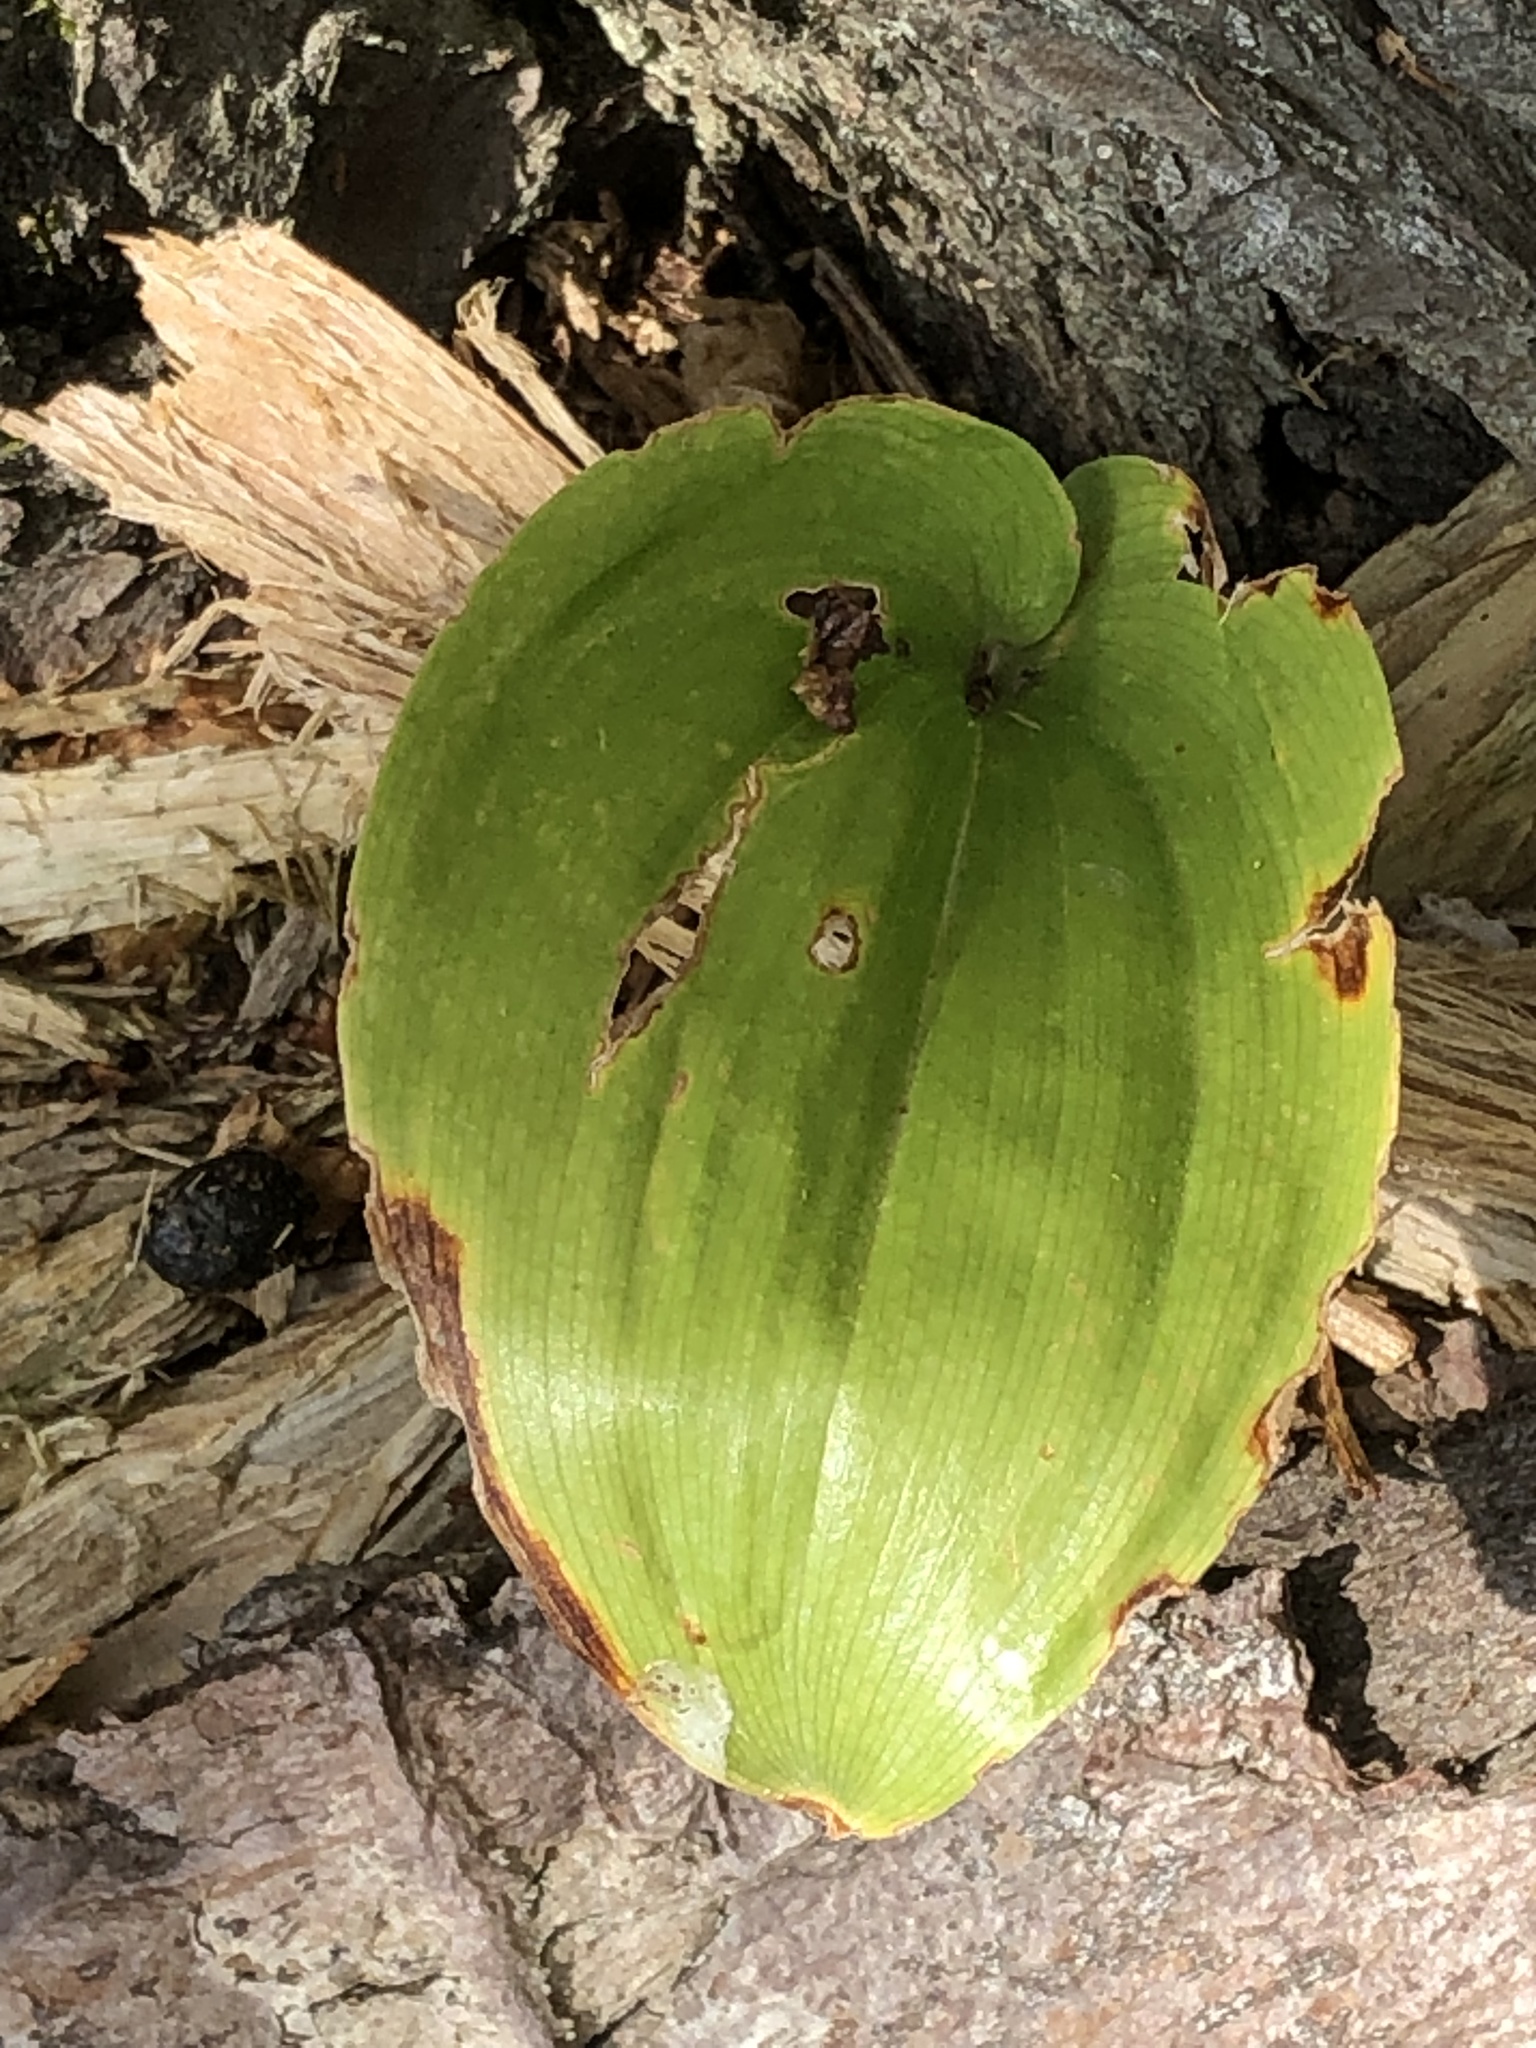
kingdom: Plantae
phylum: Tracheophyta
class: Liliopsida
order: Asparagales
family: Asparagaceae
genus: Maianthemum
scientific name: Maianthemum canadense
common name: False lily-of-the-valley
